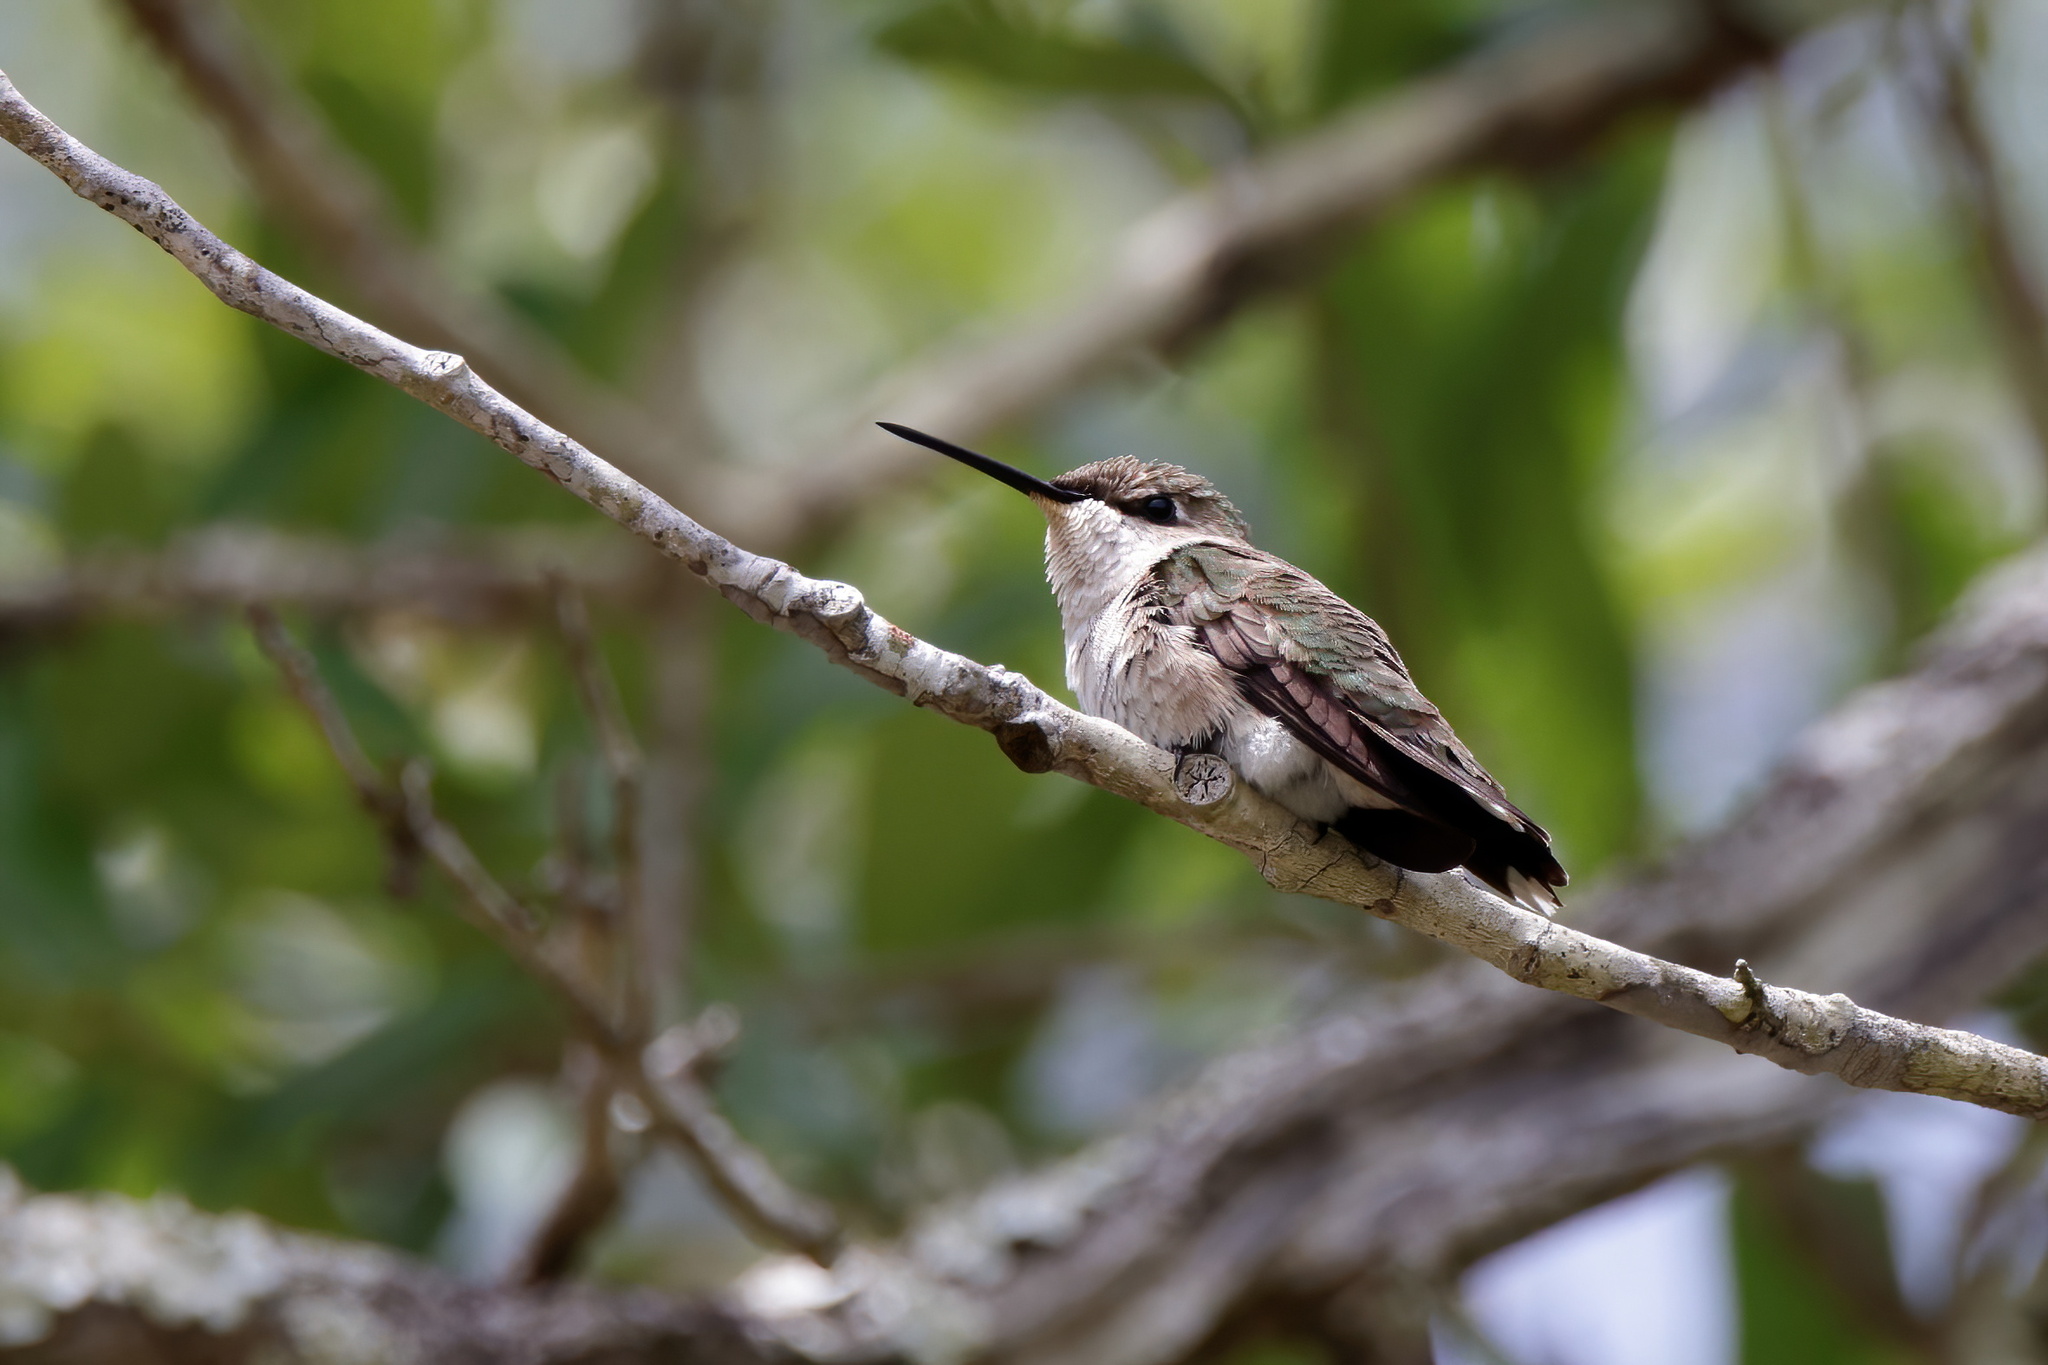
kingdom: Animalia
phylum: Chordata
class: Aves
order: Apodiformes
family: Trochilidae
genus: Archilochus
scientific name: Archilochus colubris
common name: Ruby-throated hummingbird
